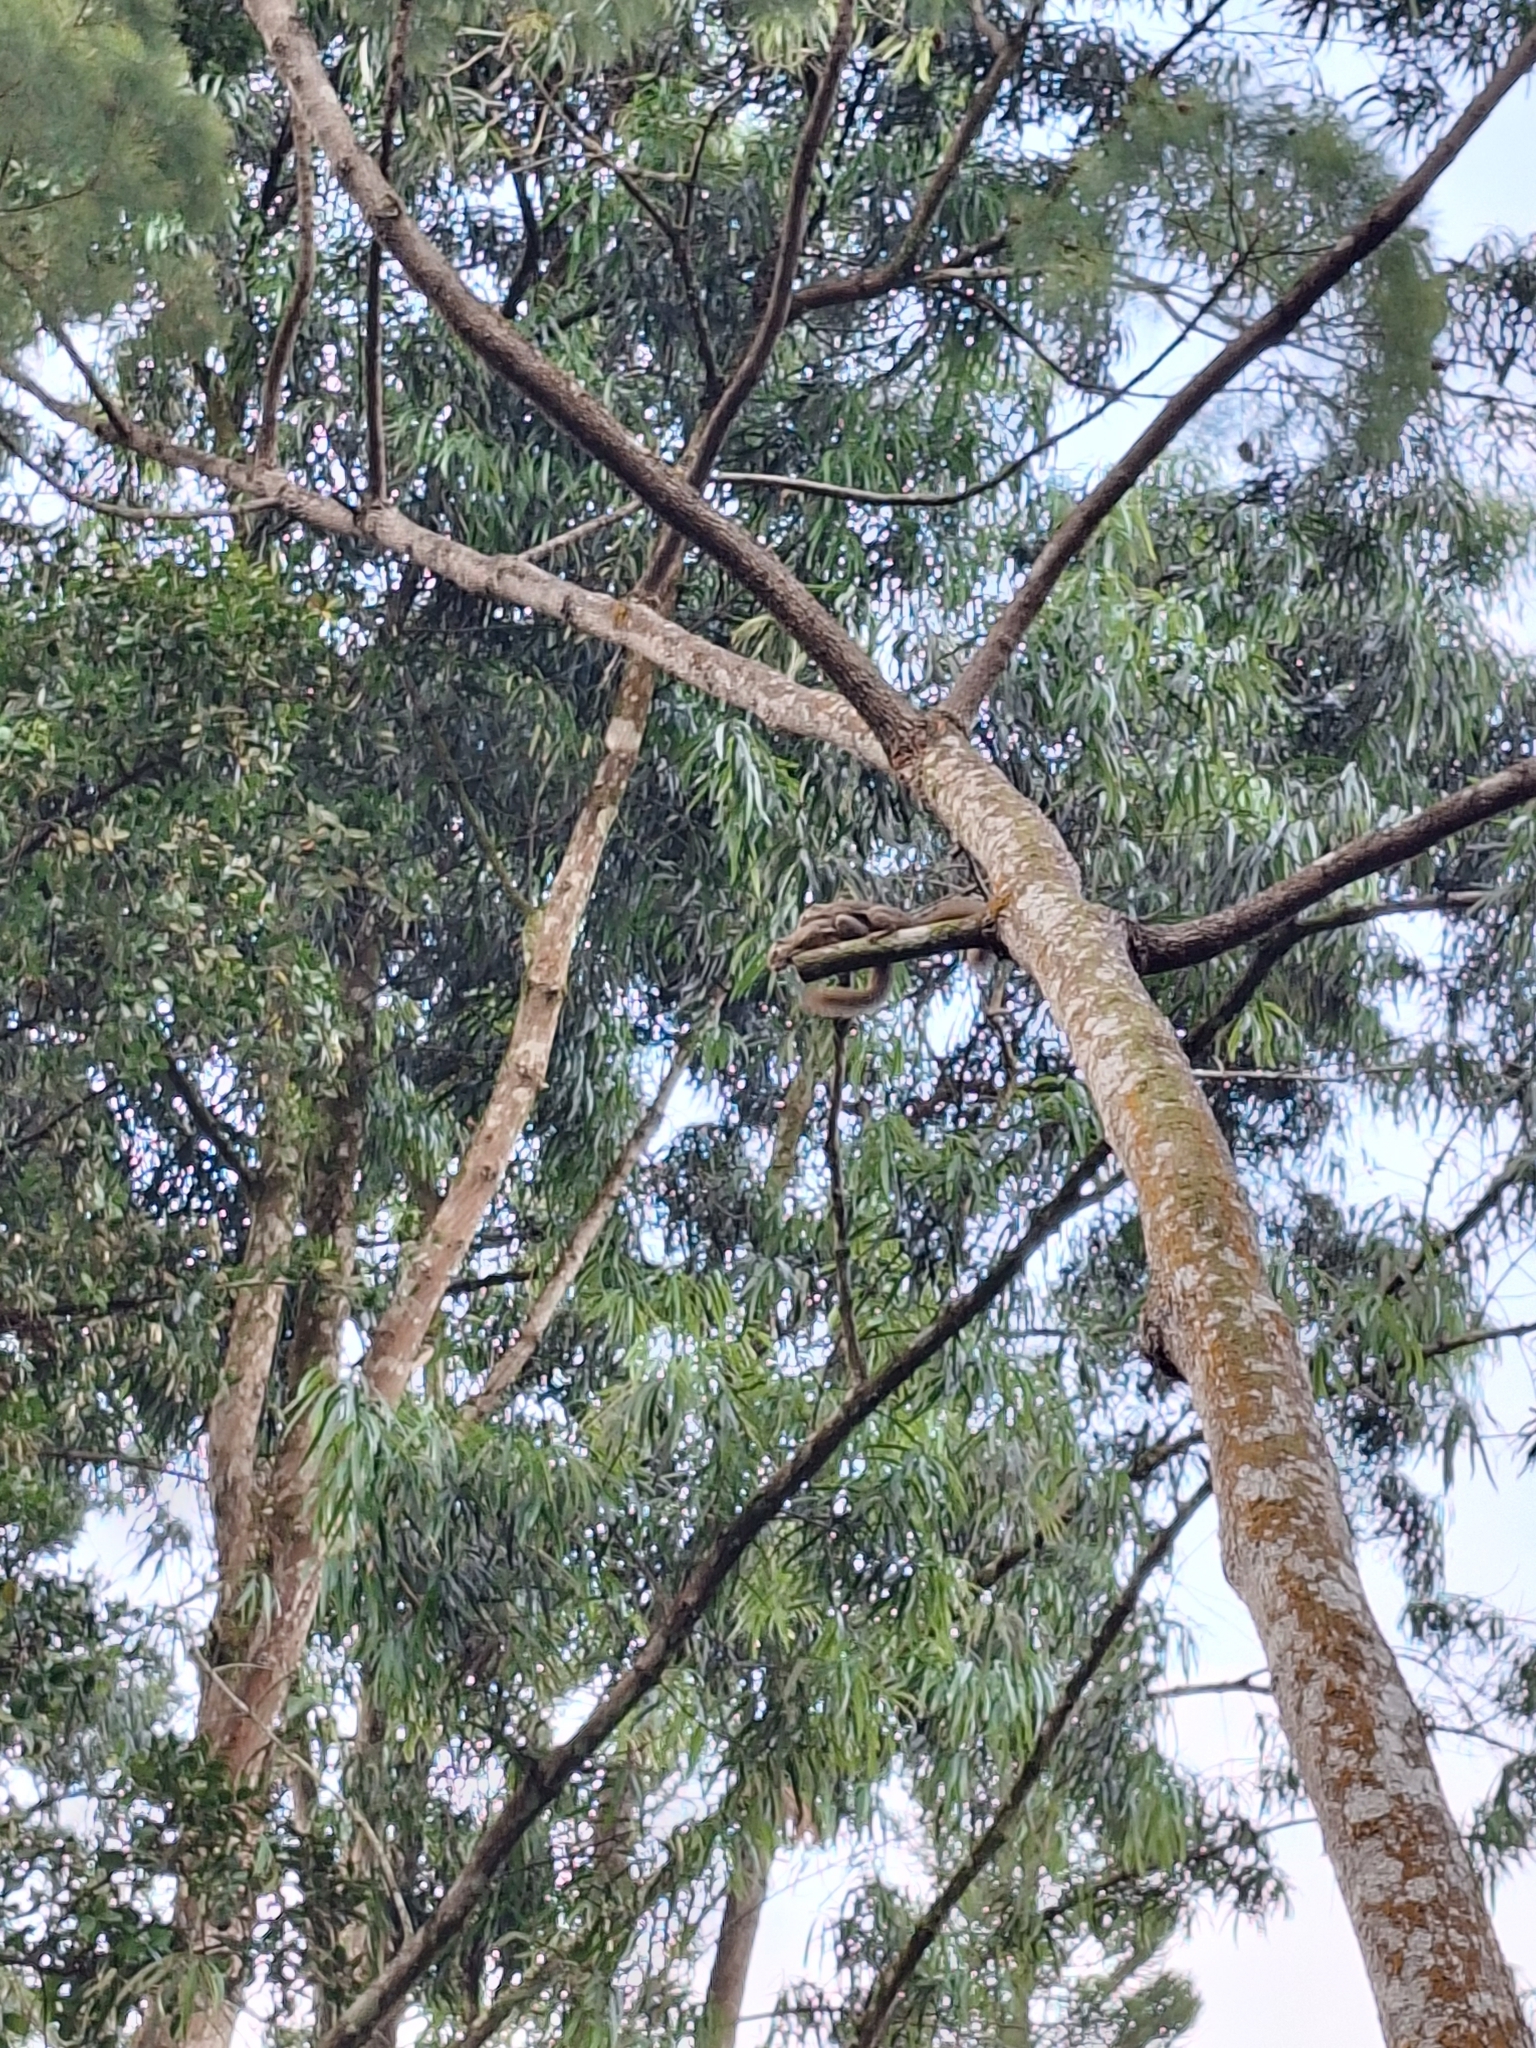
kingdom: Animalia
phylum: Chordata
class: Mammalia
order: Rodentia
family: Sciuridae
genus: Callosciurus
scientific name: Callosciurus notatus
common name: Plantain squirrel
